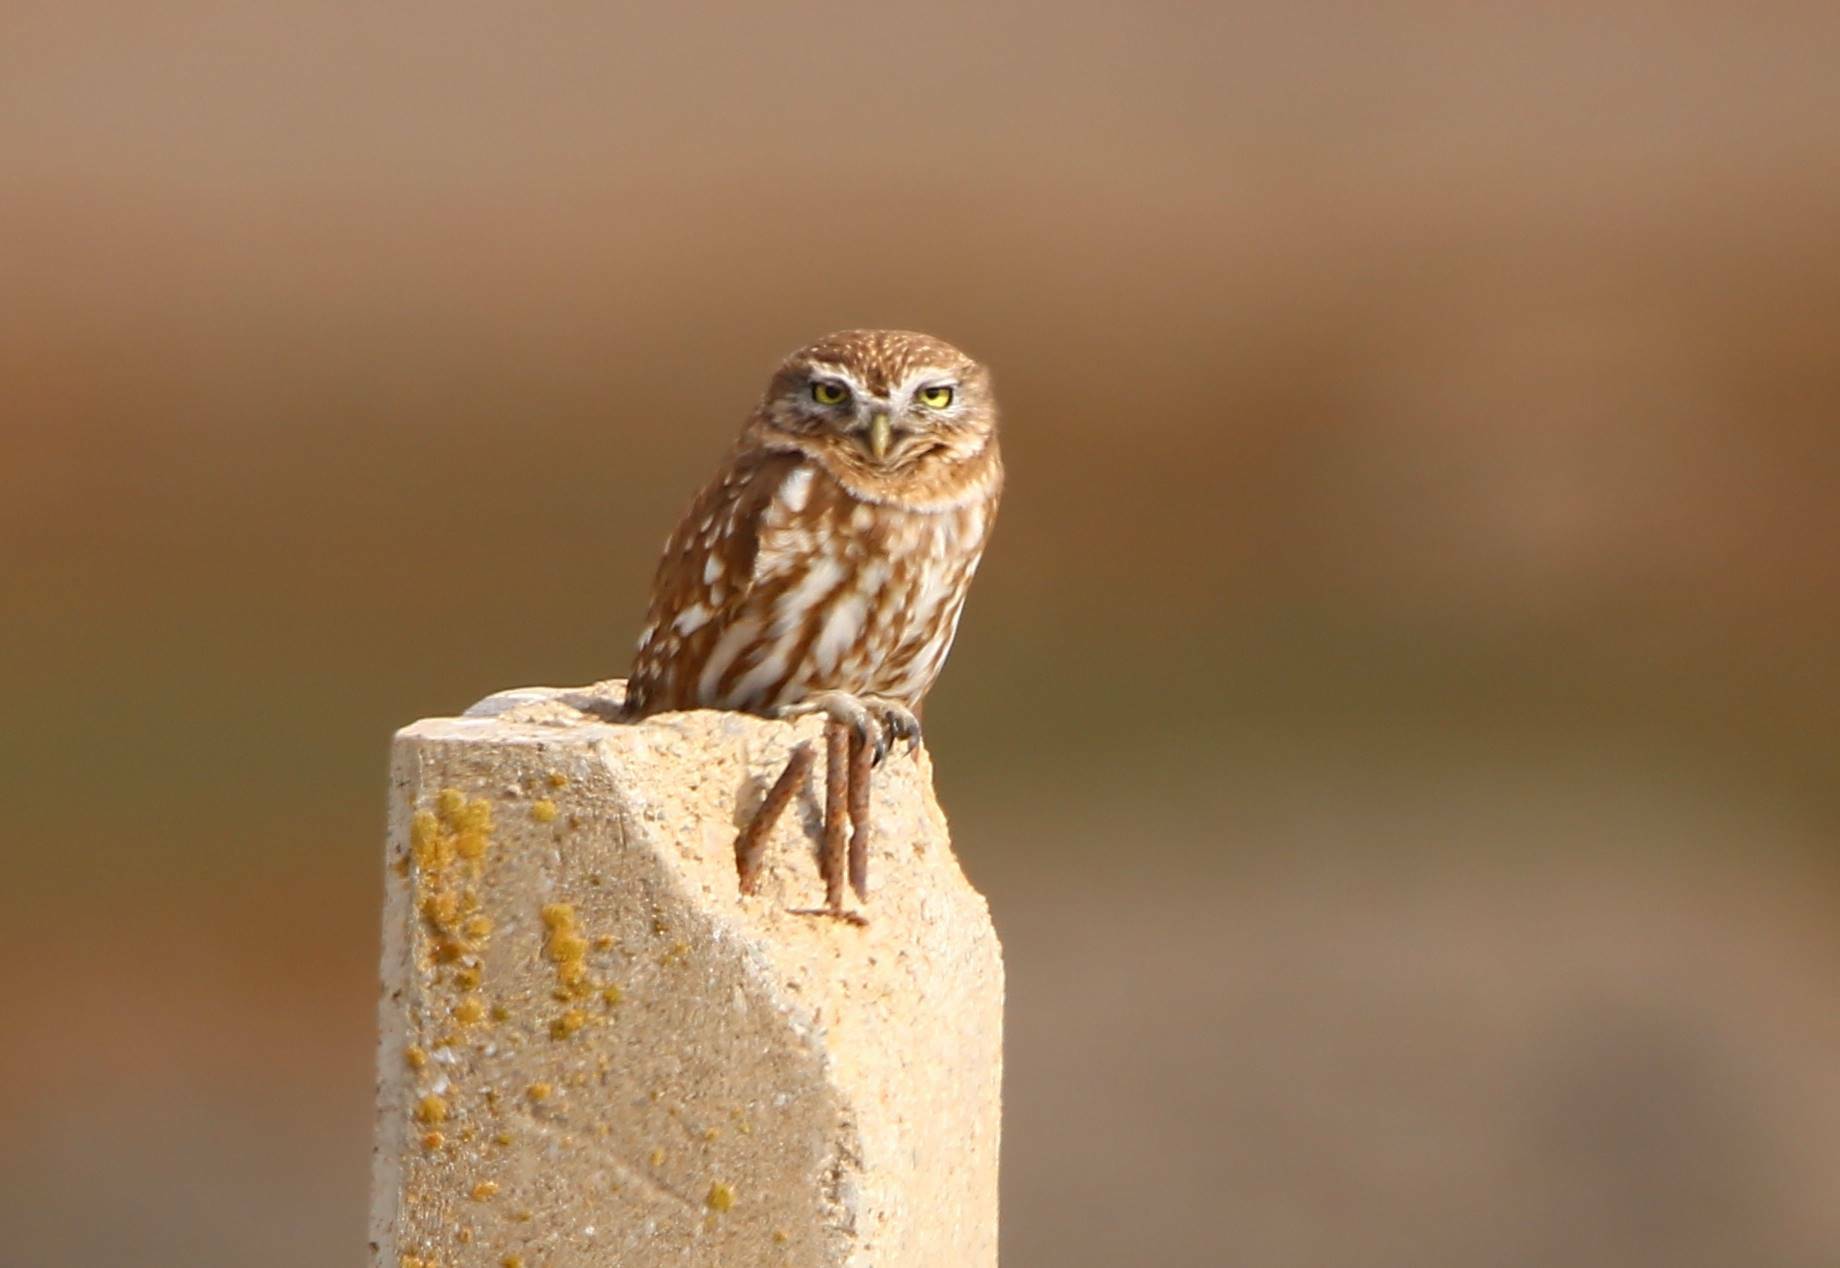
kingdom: Animalia
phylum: Chordata
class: Aves
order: Strigiformes
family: Strigidae
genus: Athene
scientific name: Athene noctua
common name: Little owl
